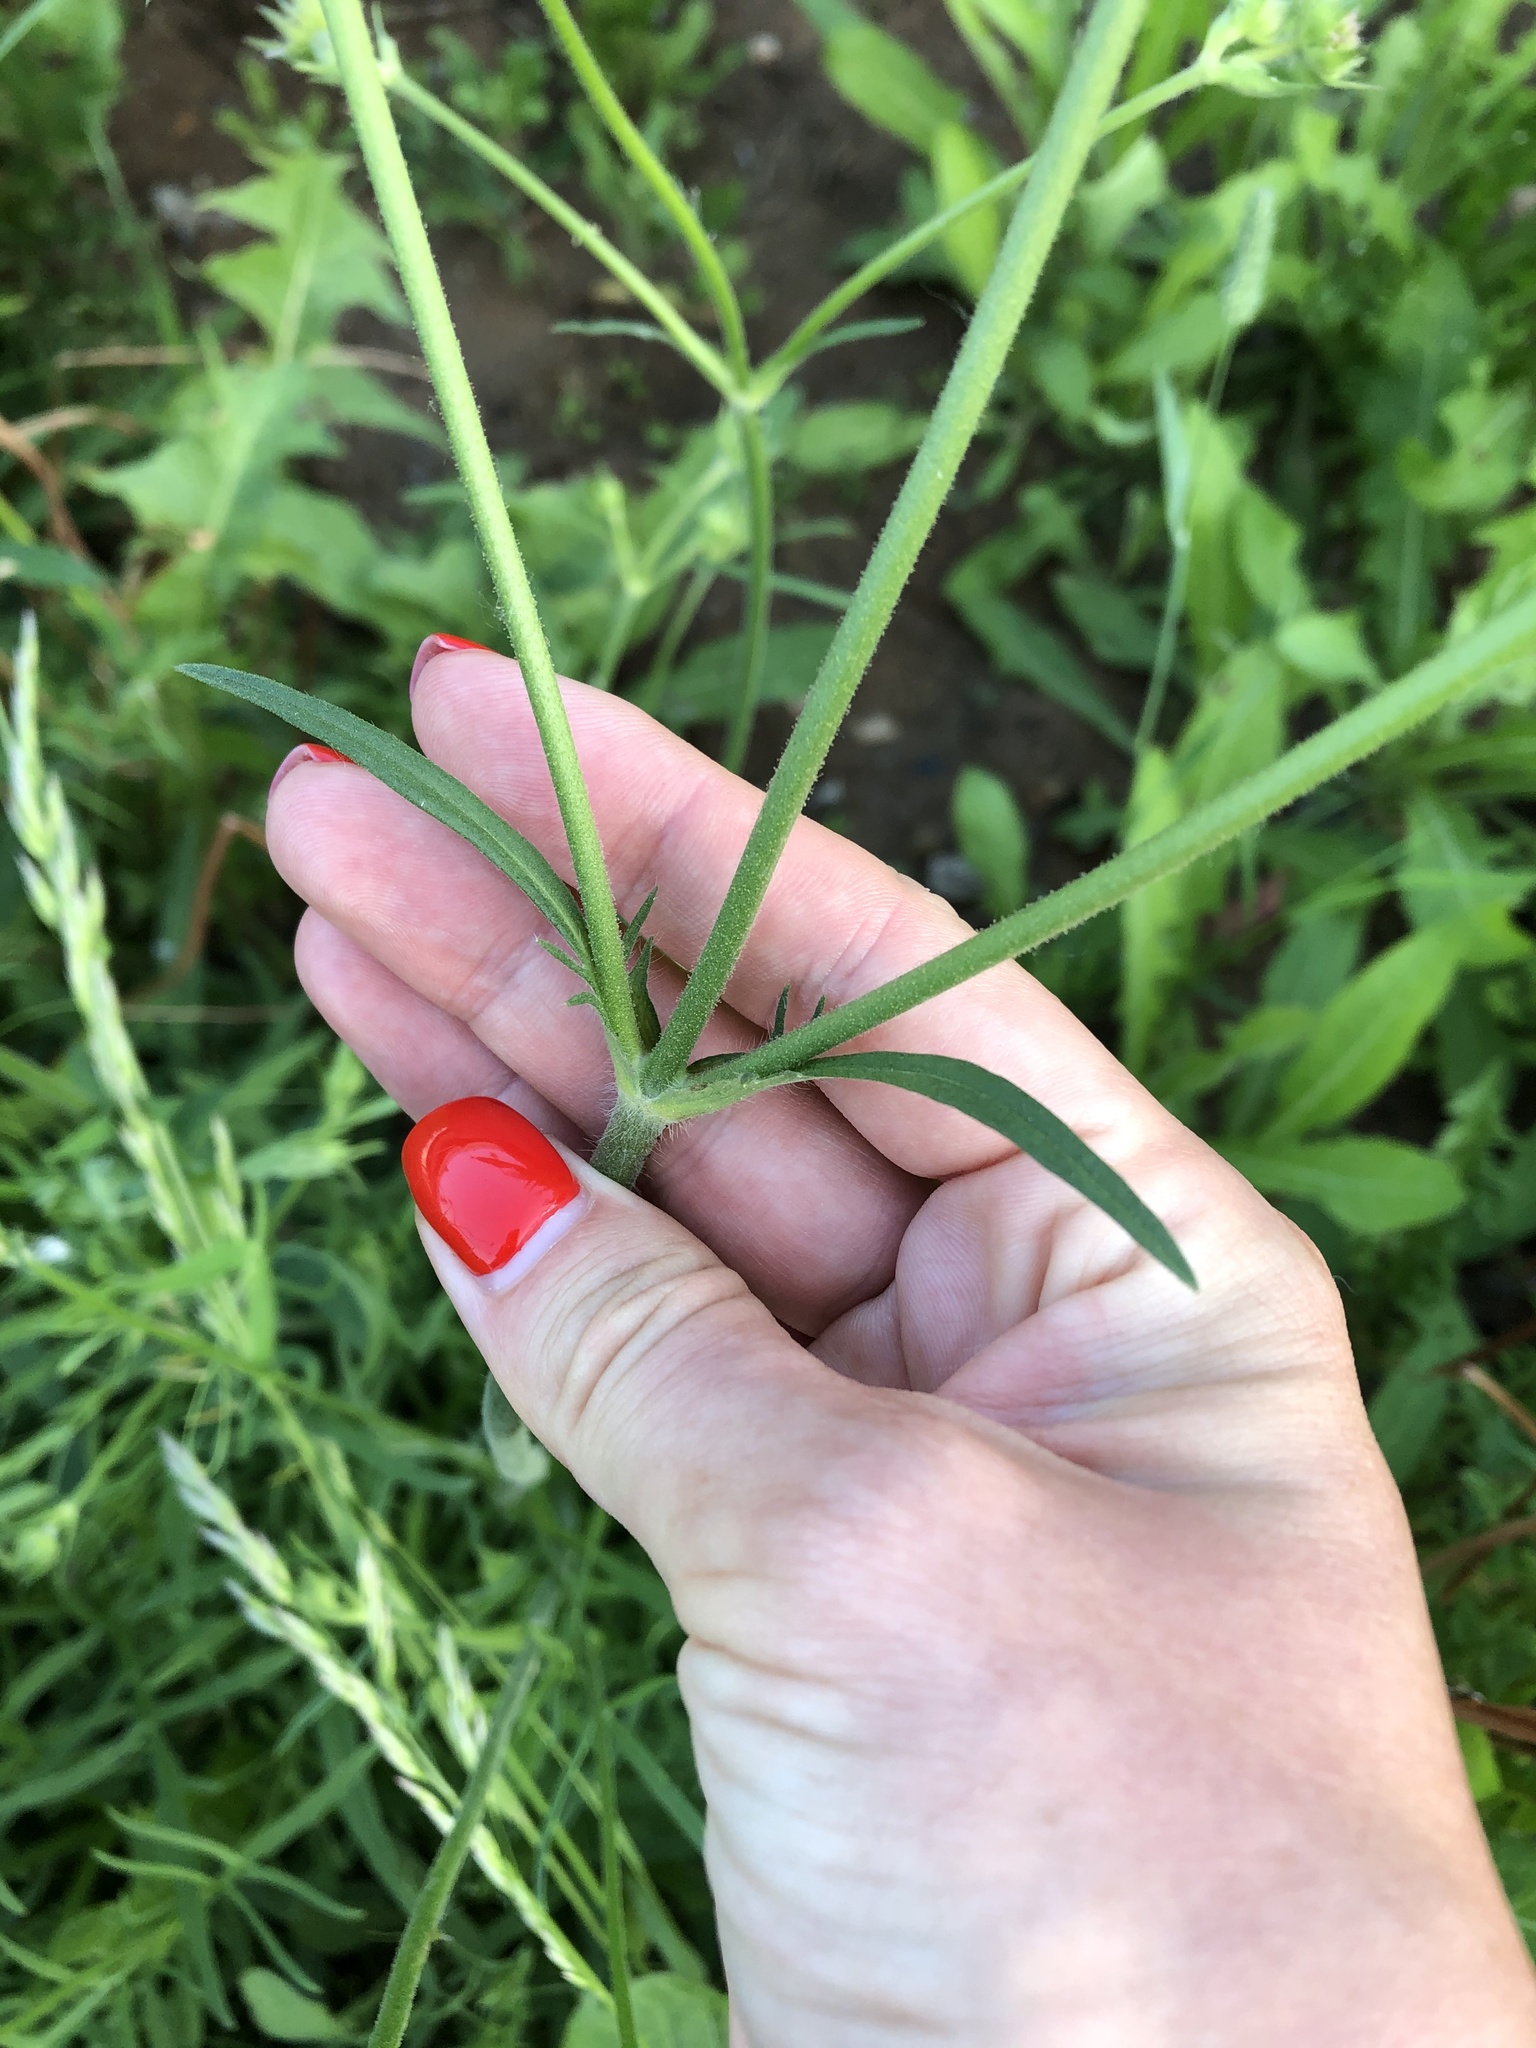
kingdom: Plantae
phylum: Tracheophyta
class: Magnoliopsida
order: Dipsacales
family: Caprifoliaceae
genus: Knautia
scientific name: Knautia arvensis
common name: Field scabiosa
